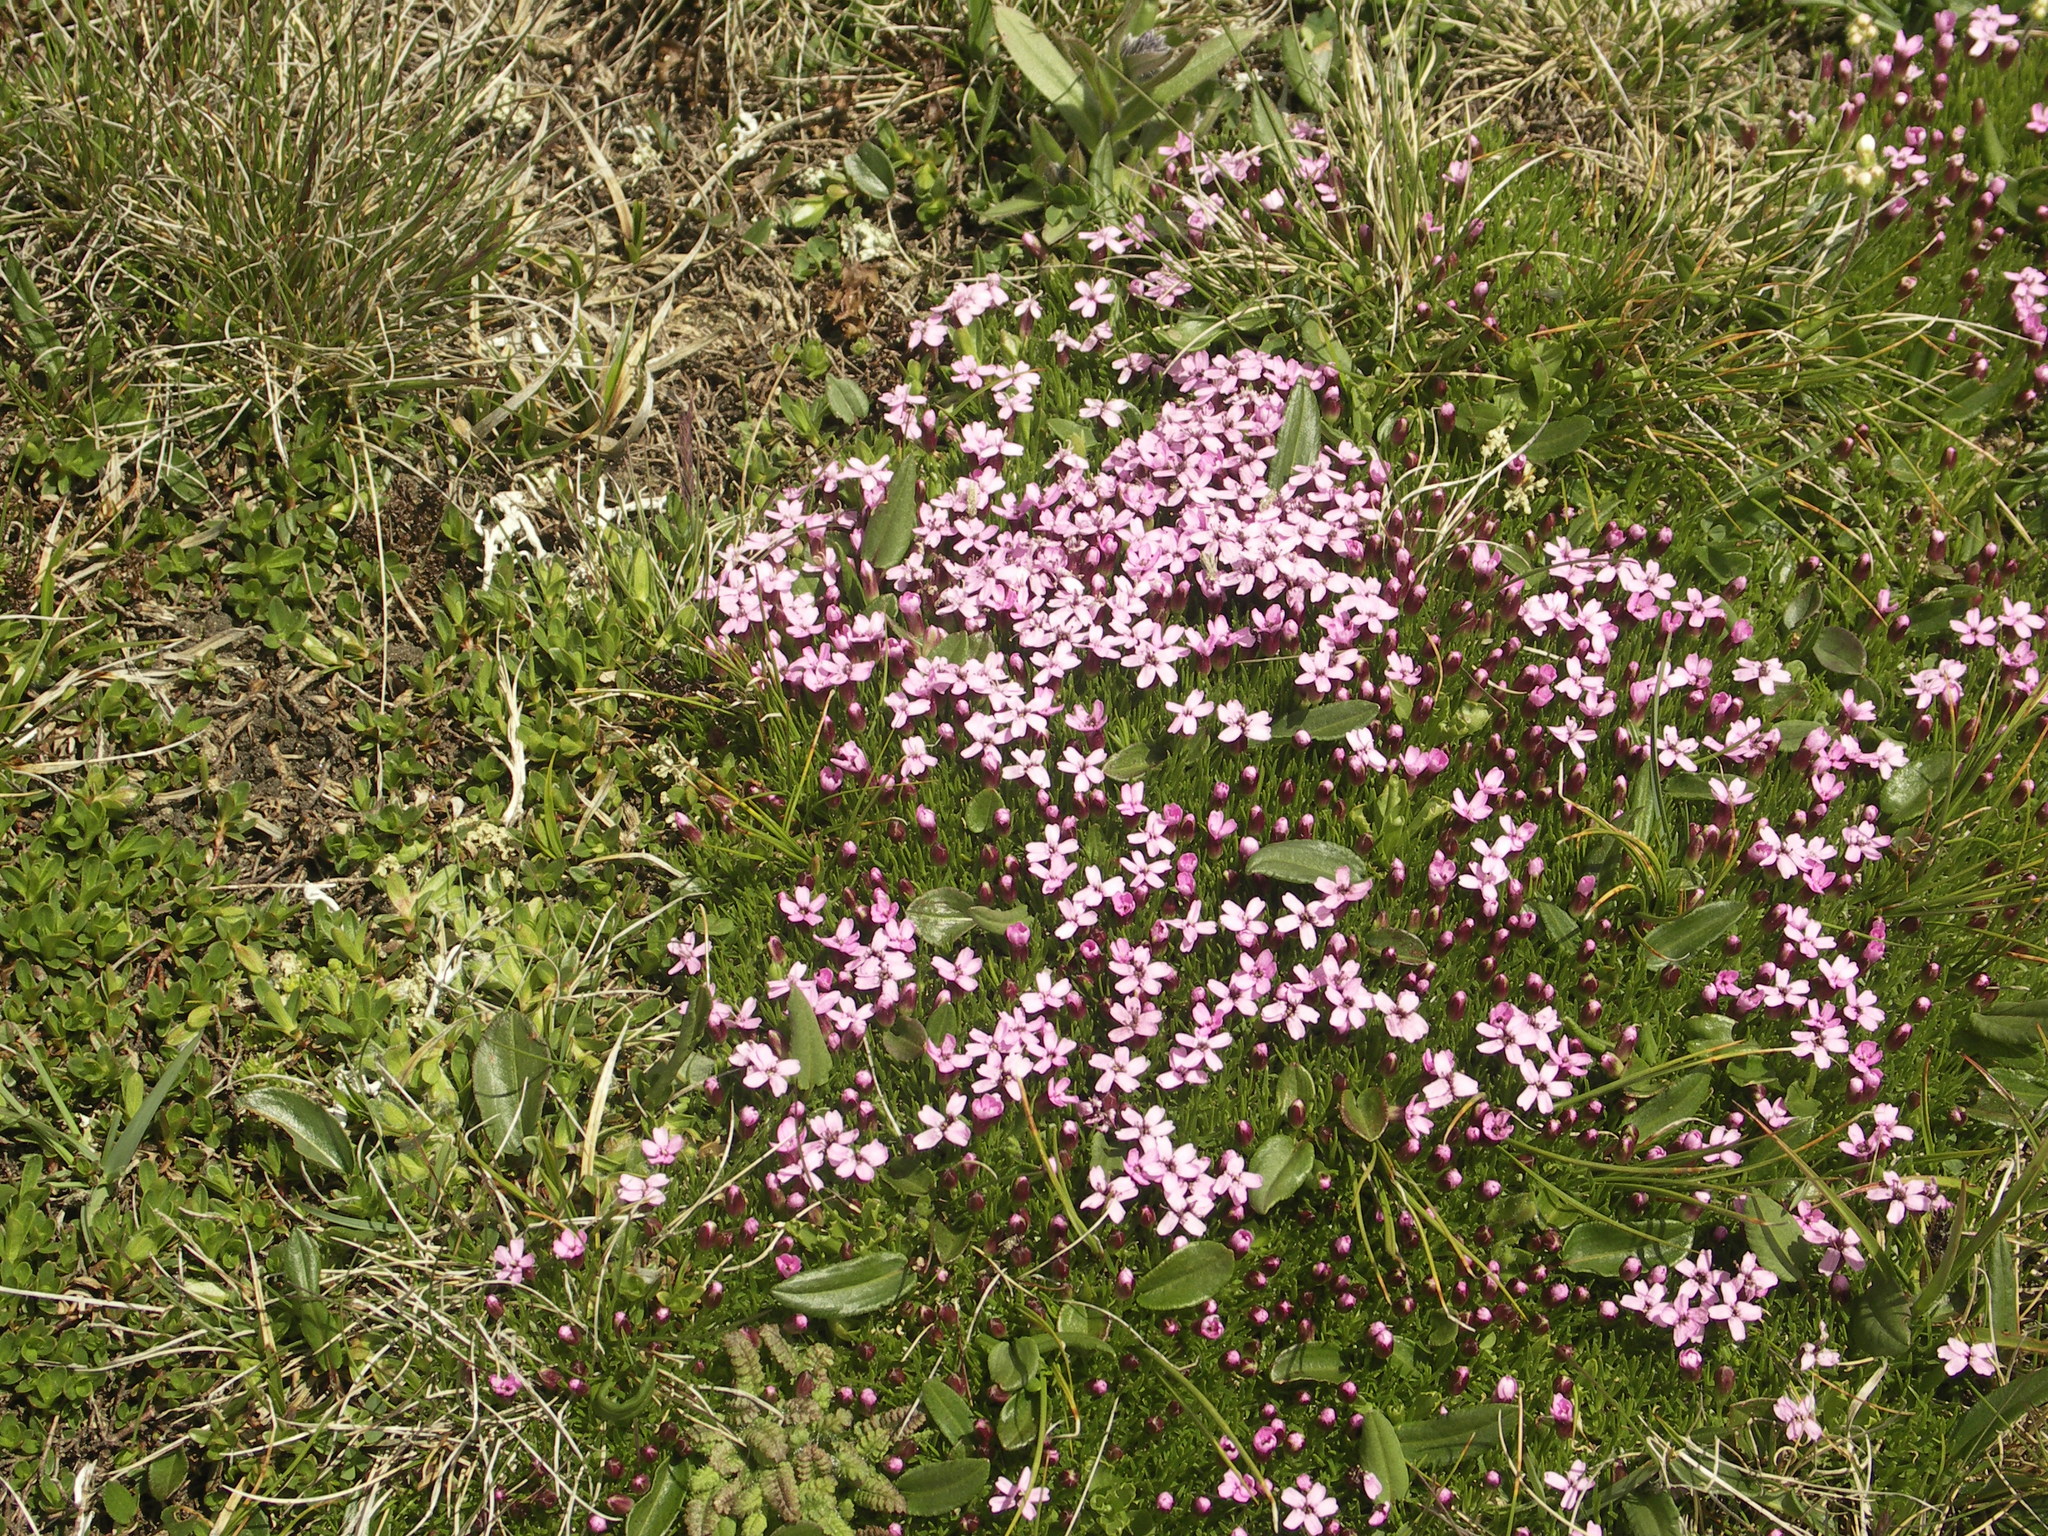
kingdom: Plantae
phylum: Tracheophyta
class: Magnoliopsida
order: Caryophyllales
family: Caryophyllaceae
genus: Silene
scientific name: Silene acaulis
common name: Moss campion
